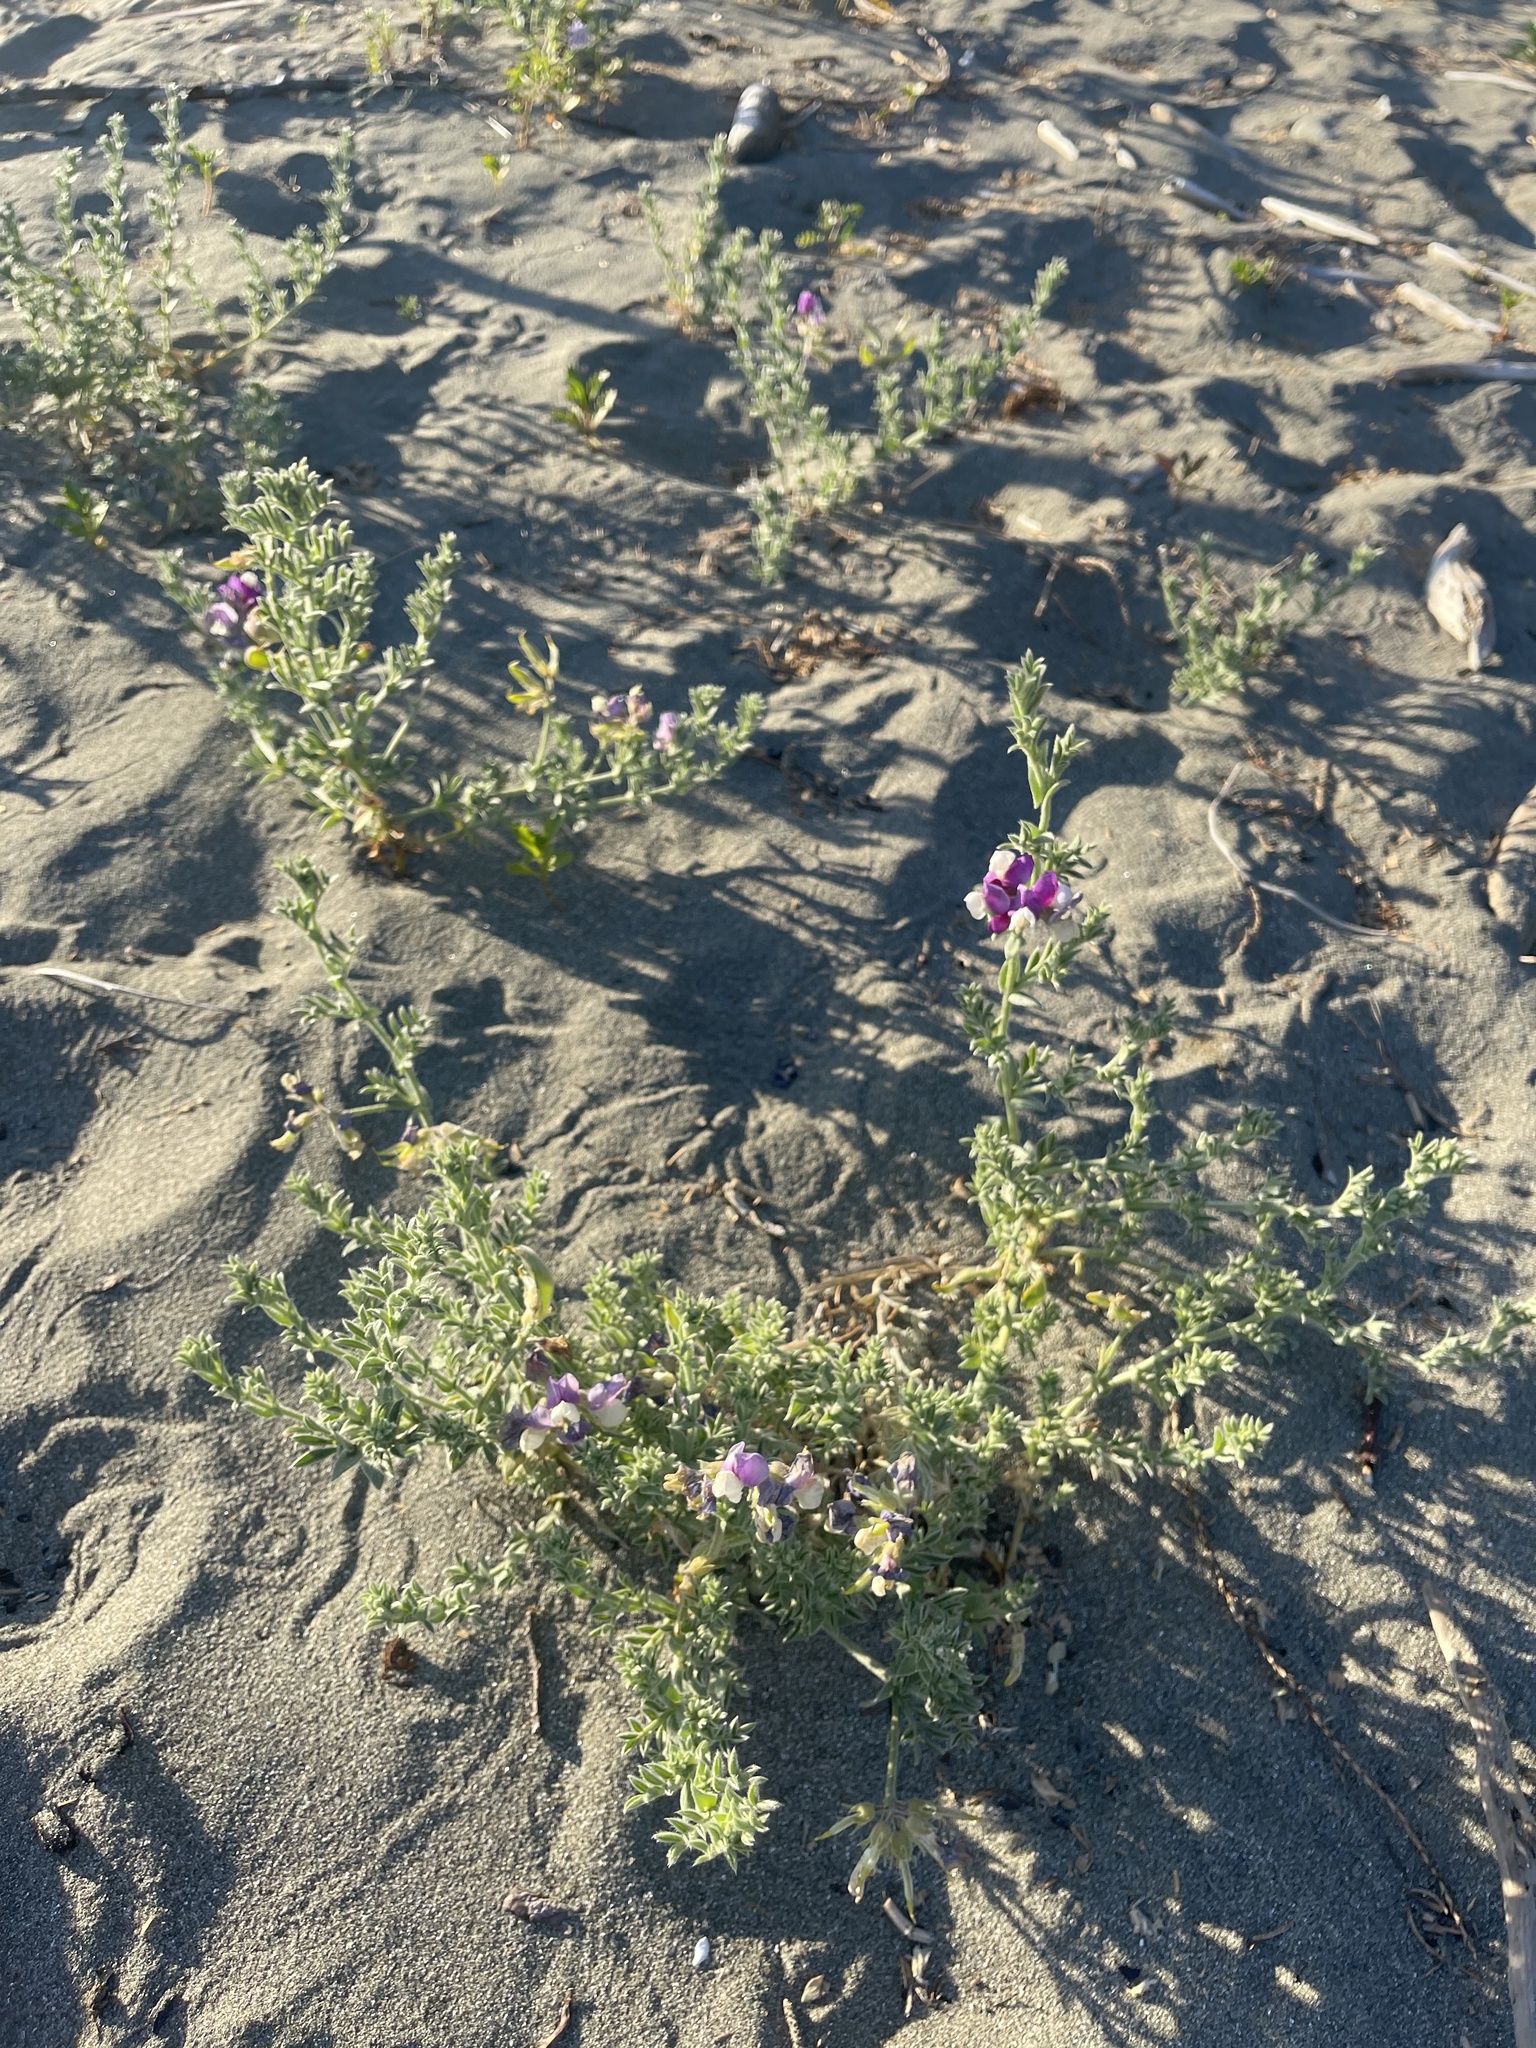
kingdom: Plantae
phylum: Tracheophyta
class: Magnoliopsida
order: Fabales
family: Fabaceae
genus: Lathyrus
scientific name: Lathyrus littoralis
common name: Dune sweet pea
